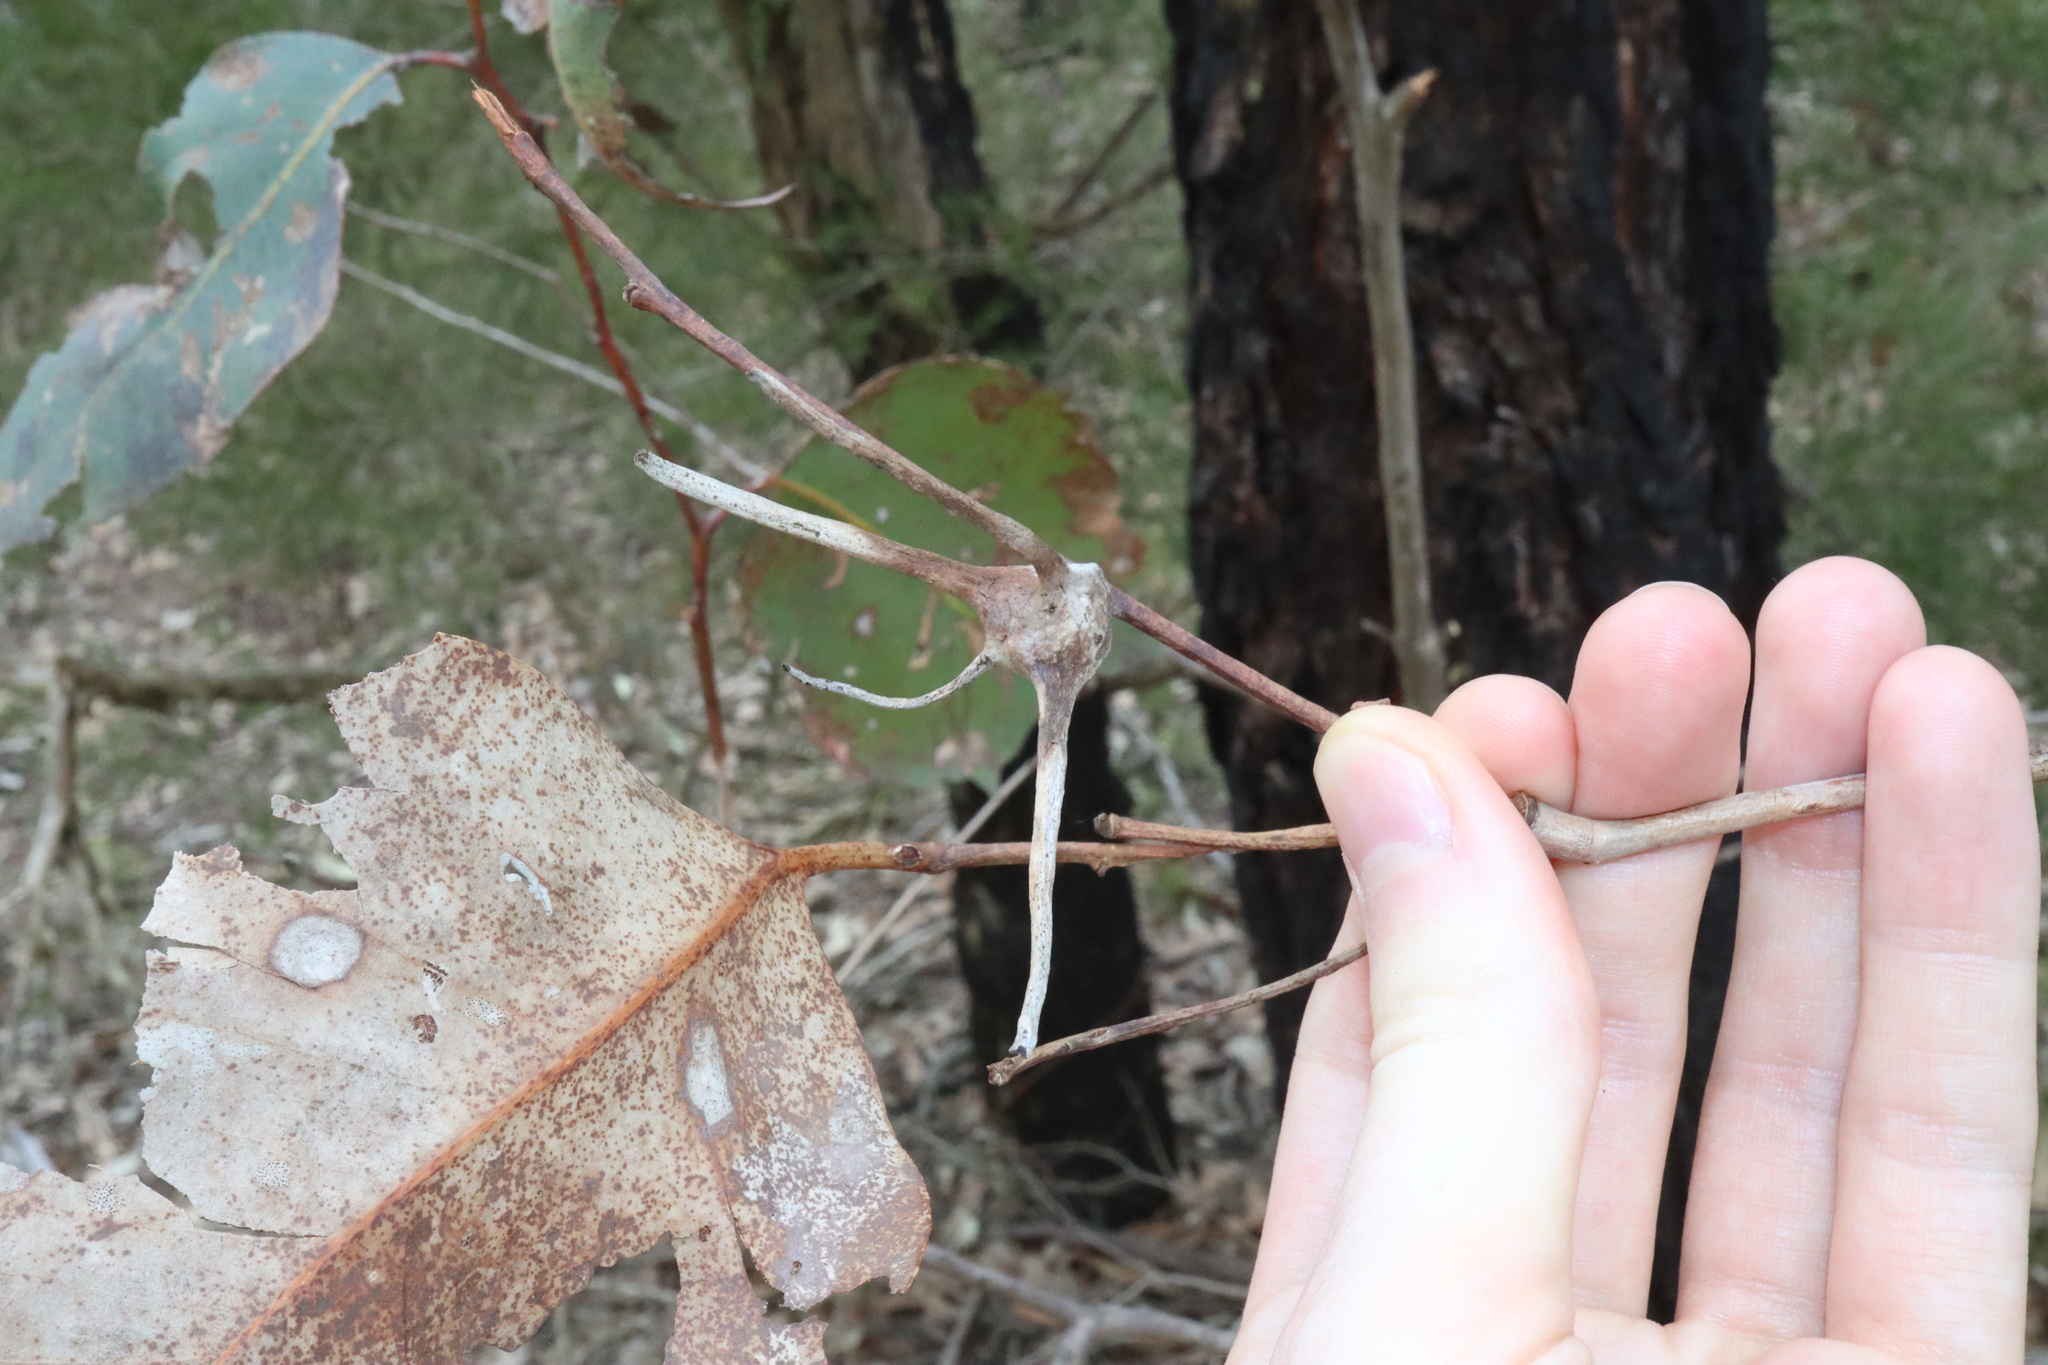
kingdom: Animalia
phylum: Arthropoda
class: Insecta
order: Hemiptera
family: Eriococcidae
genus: Apiomorpha
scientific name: Apiomorpha munita
